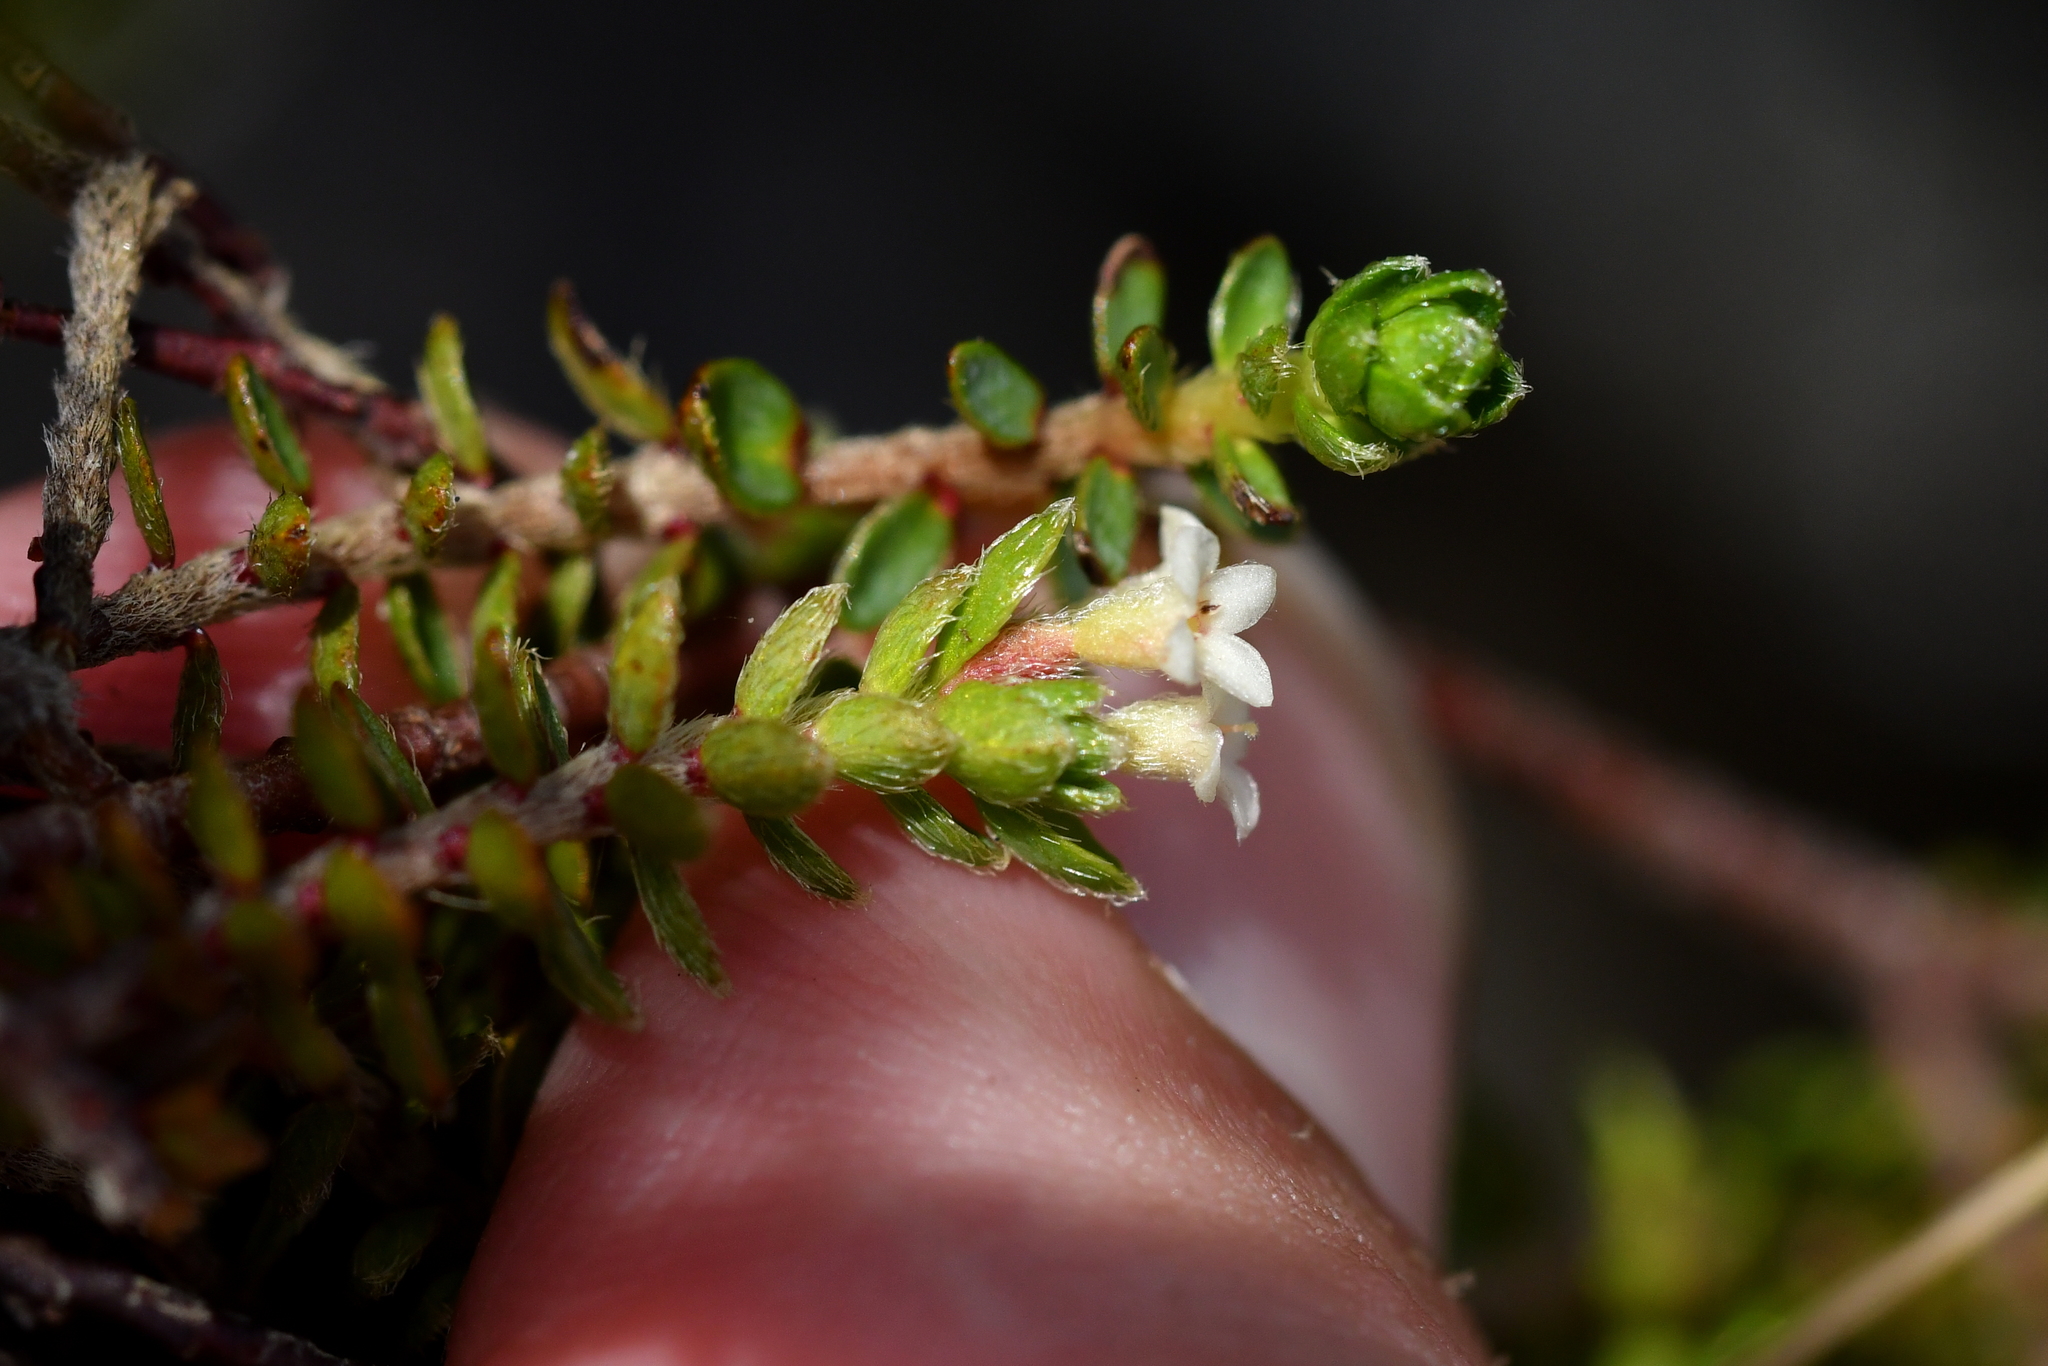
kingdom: Plantae
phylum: Tracheophyta
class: Magnoliopsida
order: Malvales
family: Thymelaeaceae
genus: Pimelea
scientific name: Pimelea oreophila
